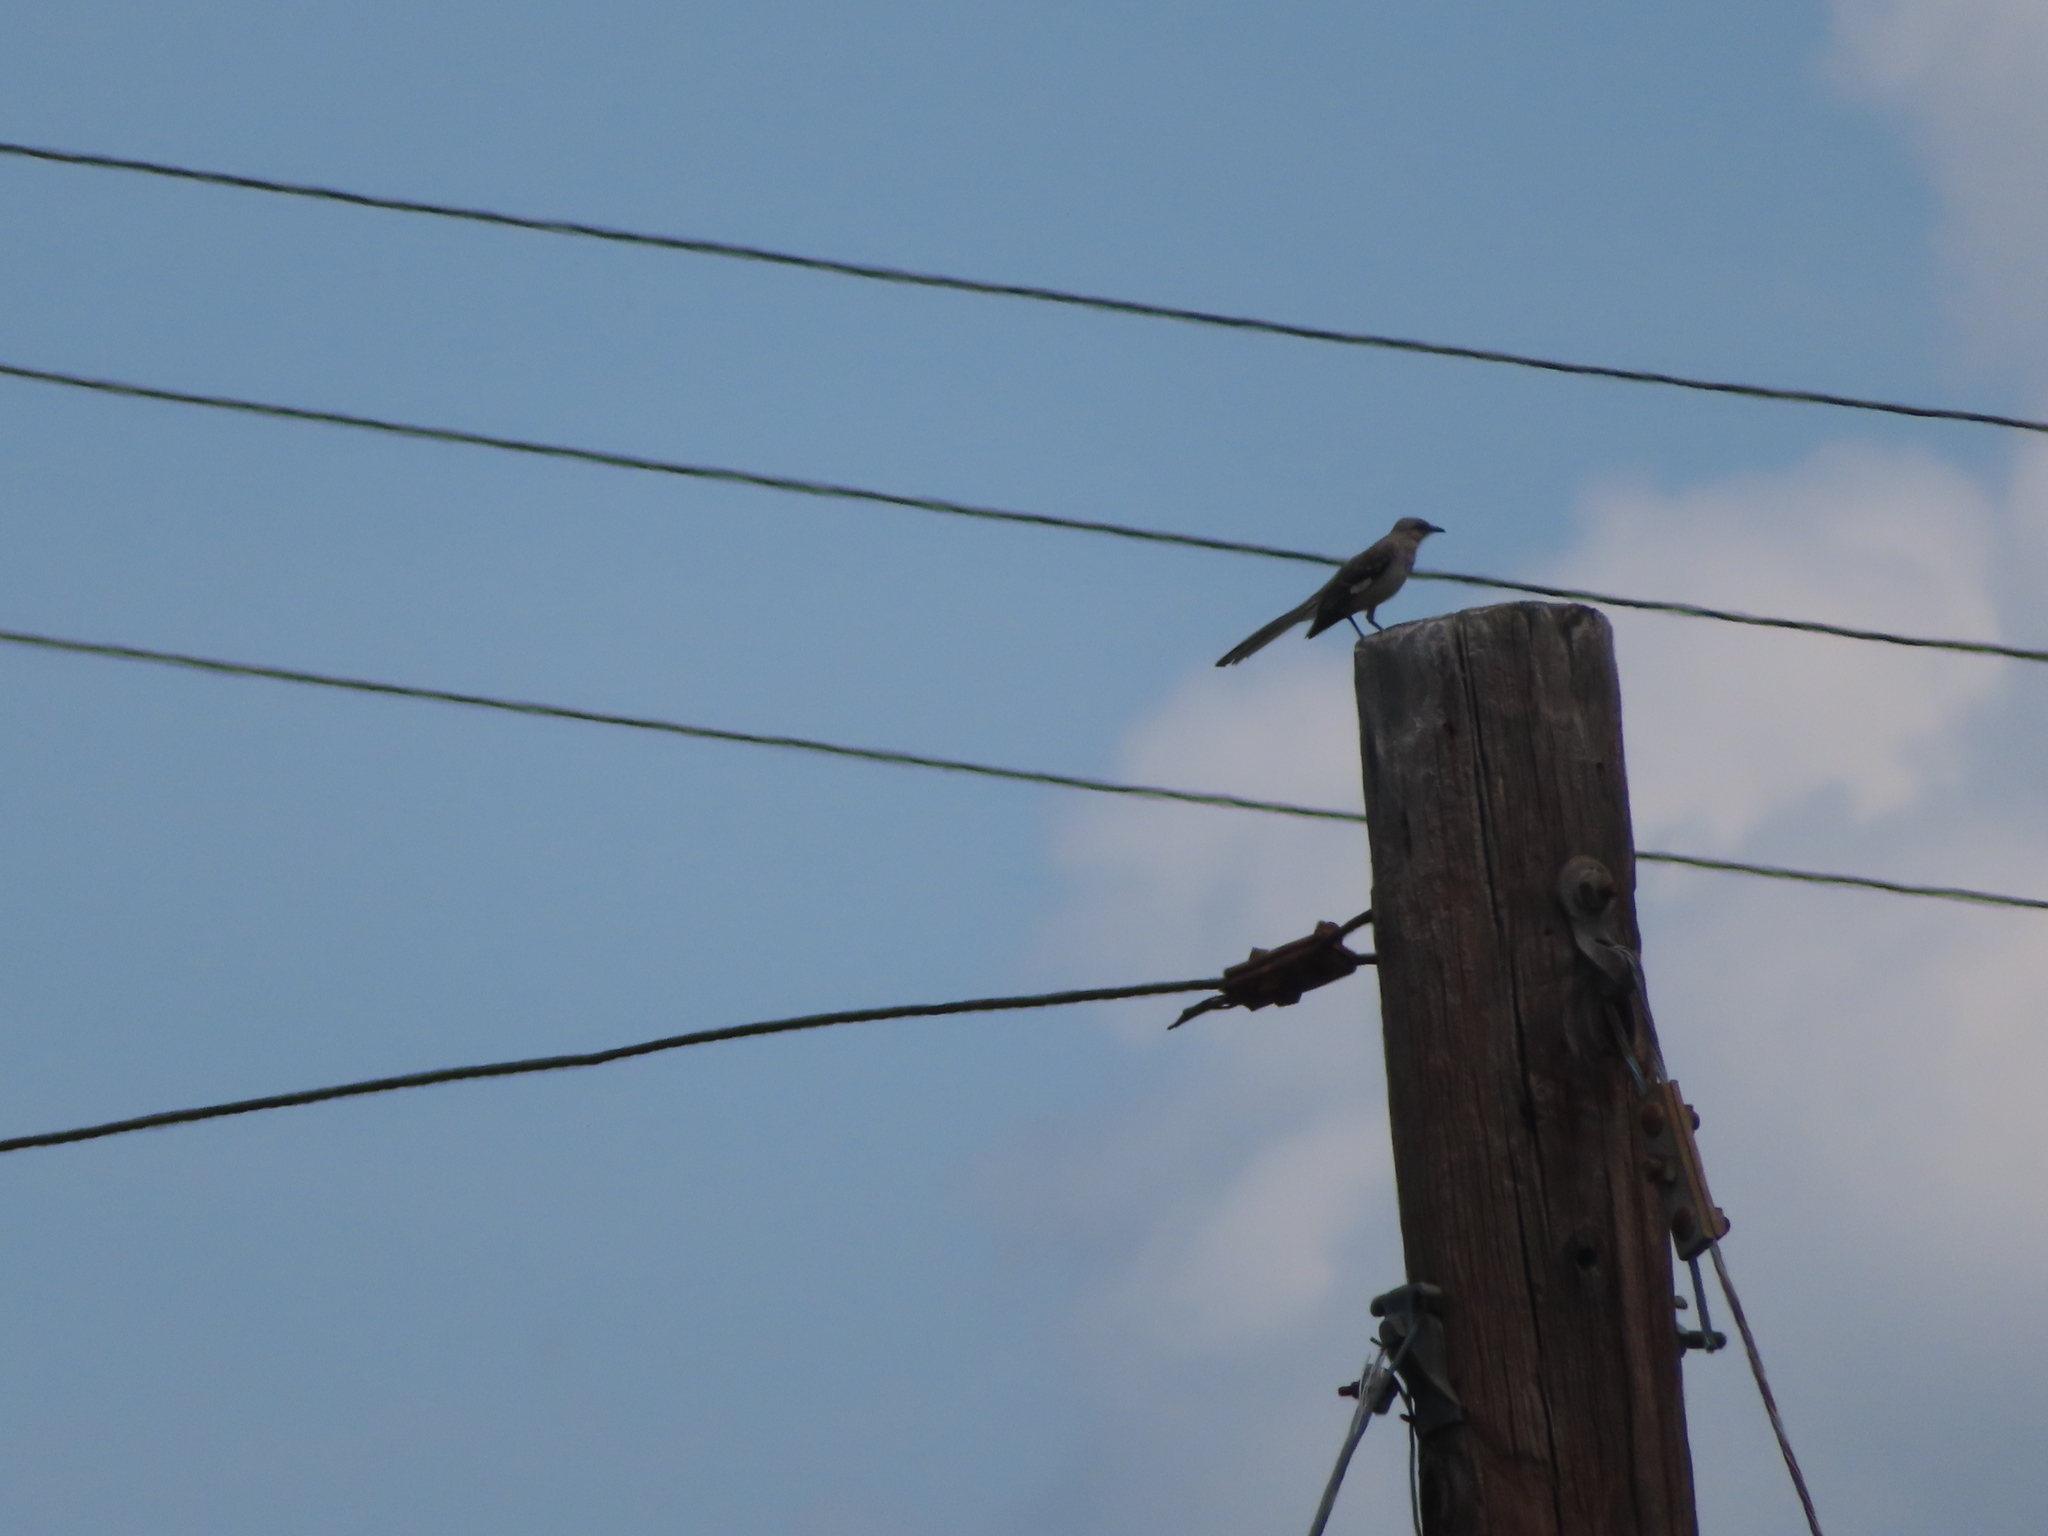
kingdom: Animalia
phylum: Chordata
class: Aves
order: Passeriformes
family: Mimidae
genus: Mimus
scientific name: Mimus polyglottos
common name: Northern mockingbird
